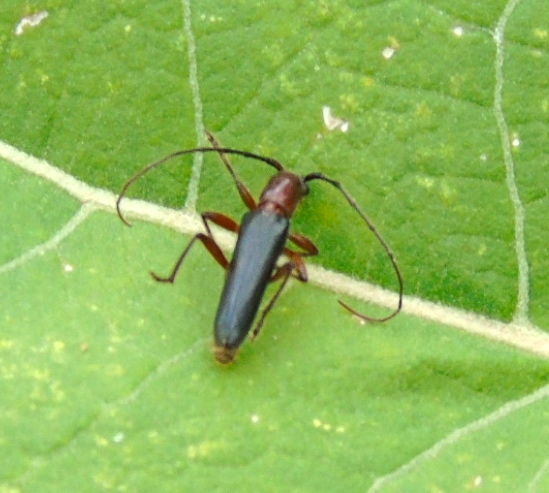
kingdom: Animalia
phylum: Arthropoda
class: Insecta
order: Coleoptera
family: Cerambycidae
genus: Psyrassa
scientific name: Psyrassa
